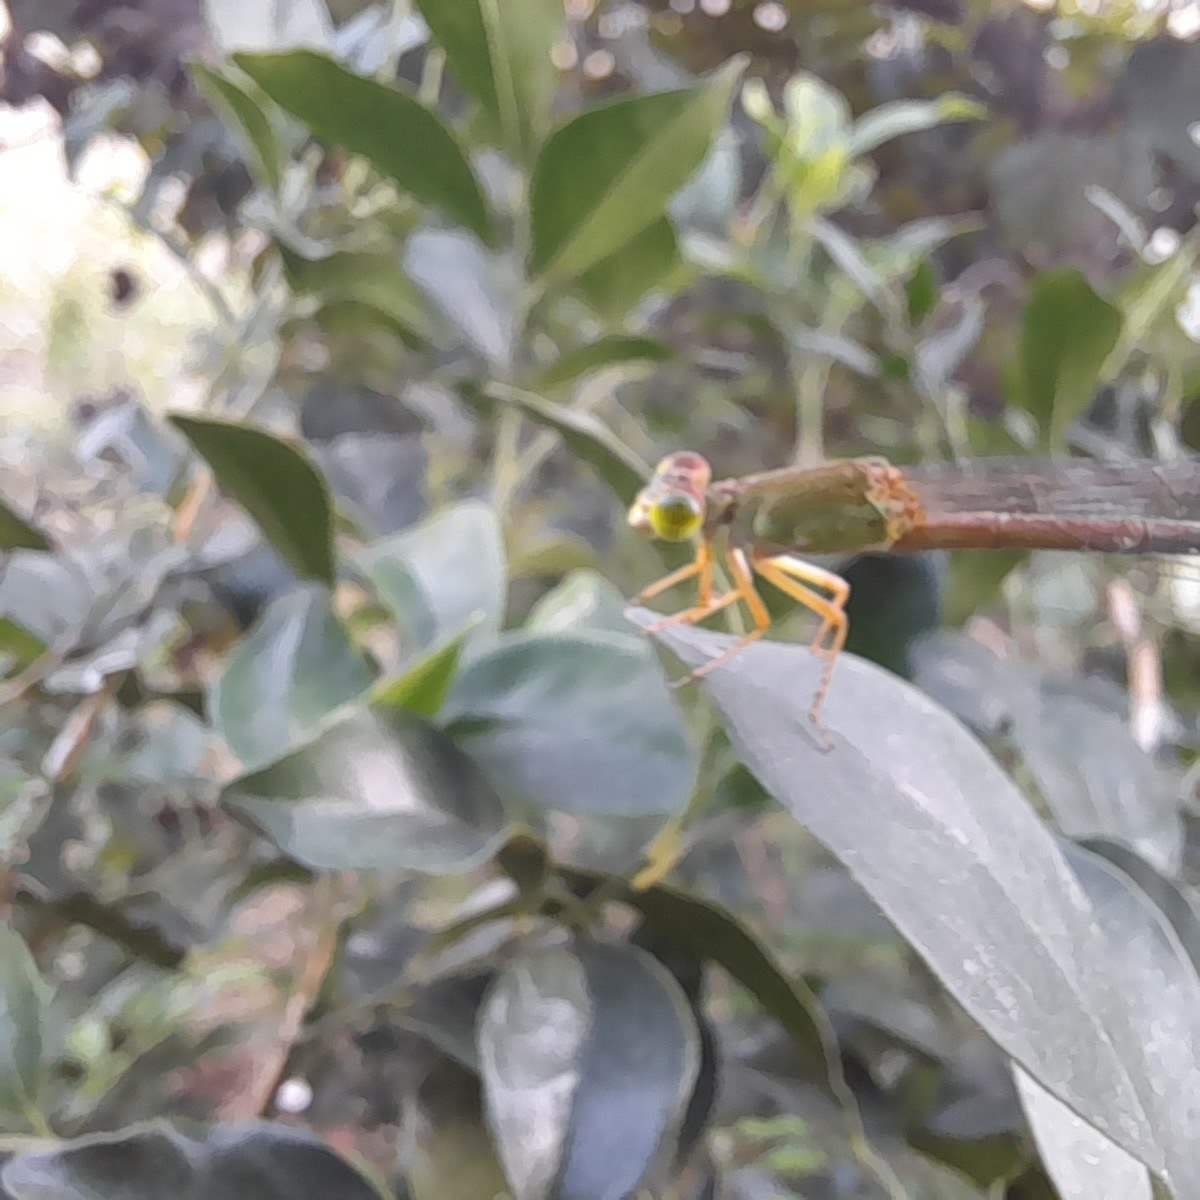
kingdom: Animalia
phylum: Arthropoda
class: Insecta
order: Odonata
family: Coenagrionidae
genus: Ceriagrion
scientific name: Ceriagrion coromandelianum
